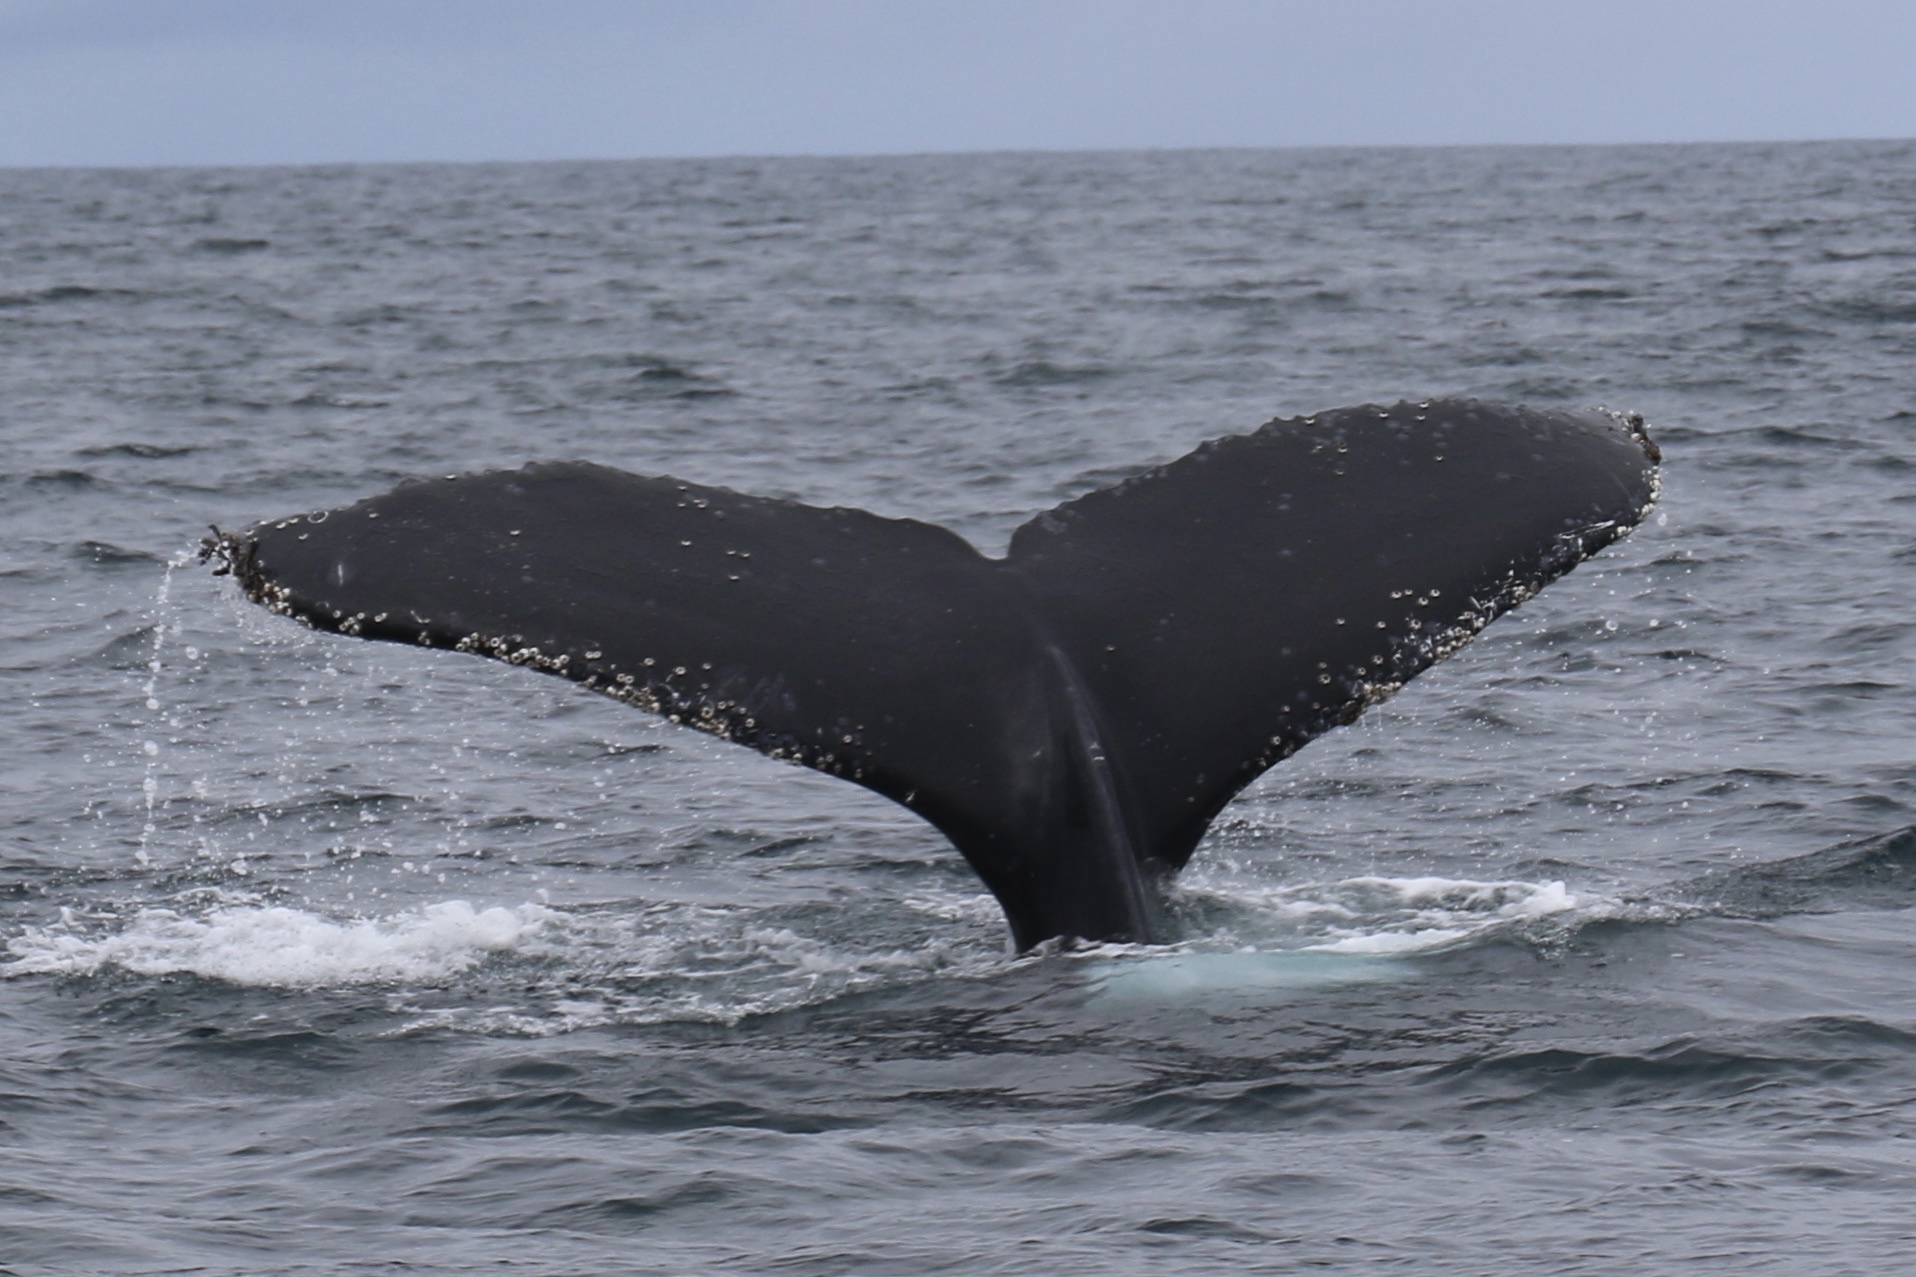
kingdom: Animalia
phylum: Chordata
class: Mammalia
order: Cetacea
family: Balaenopteridae
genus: Megaptera
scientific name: Megaptera novaeangliae
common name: Humpback whale
